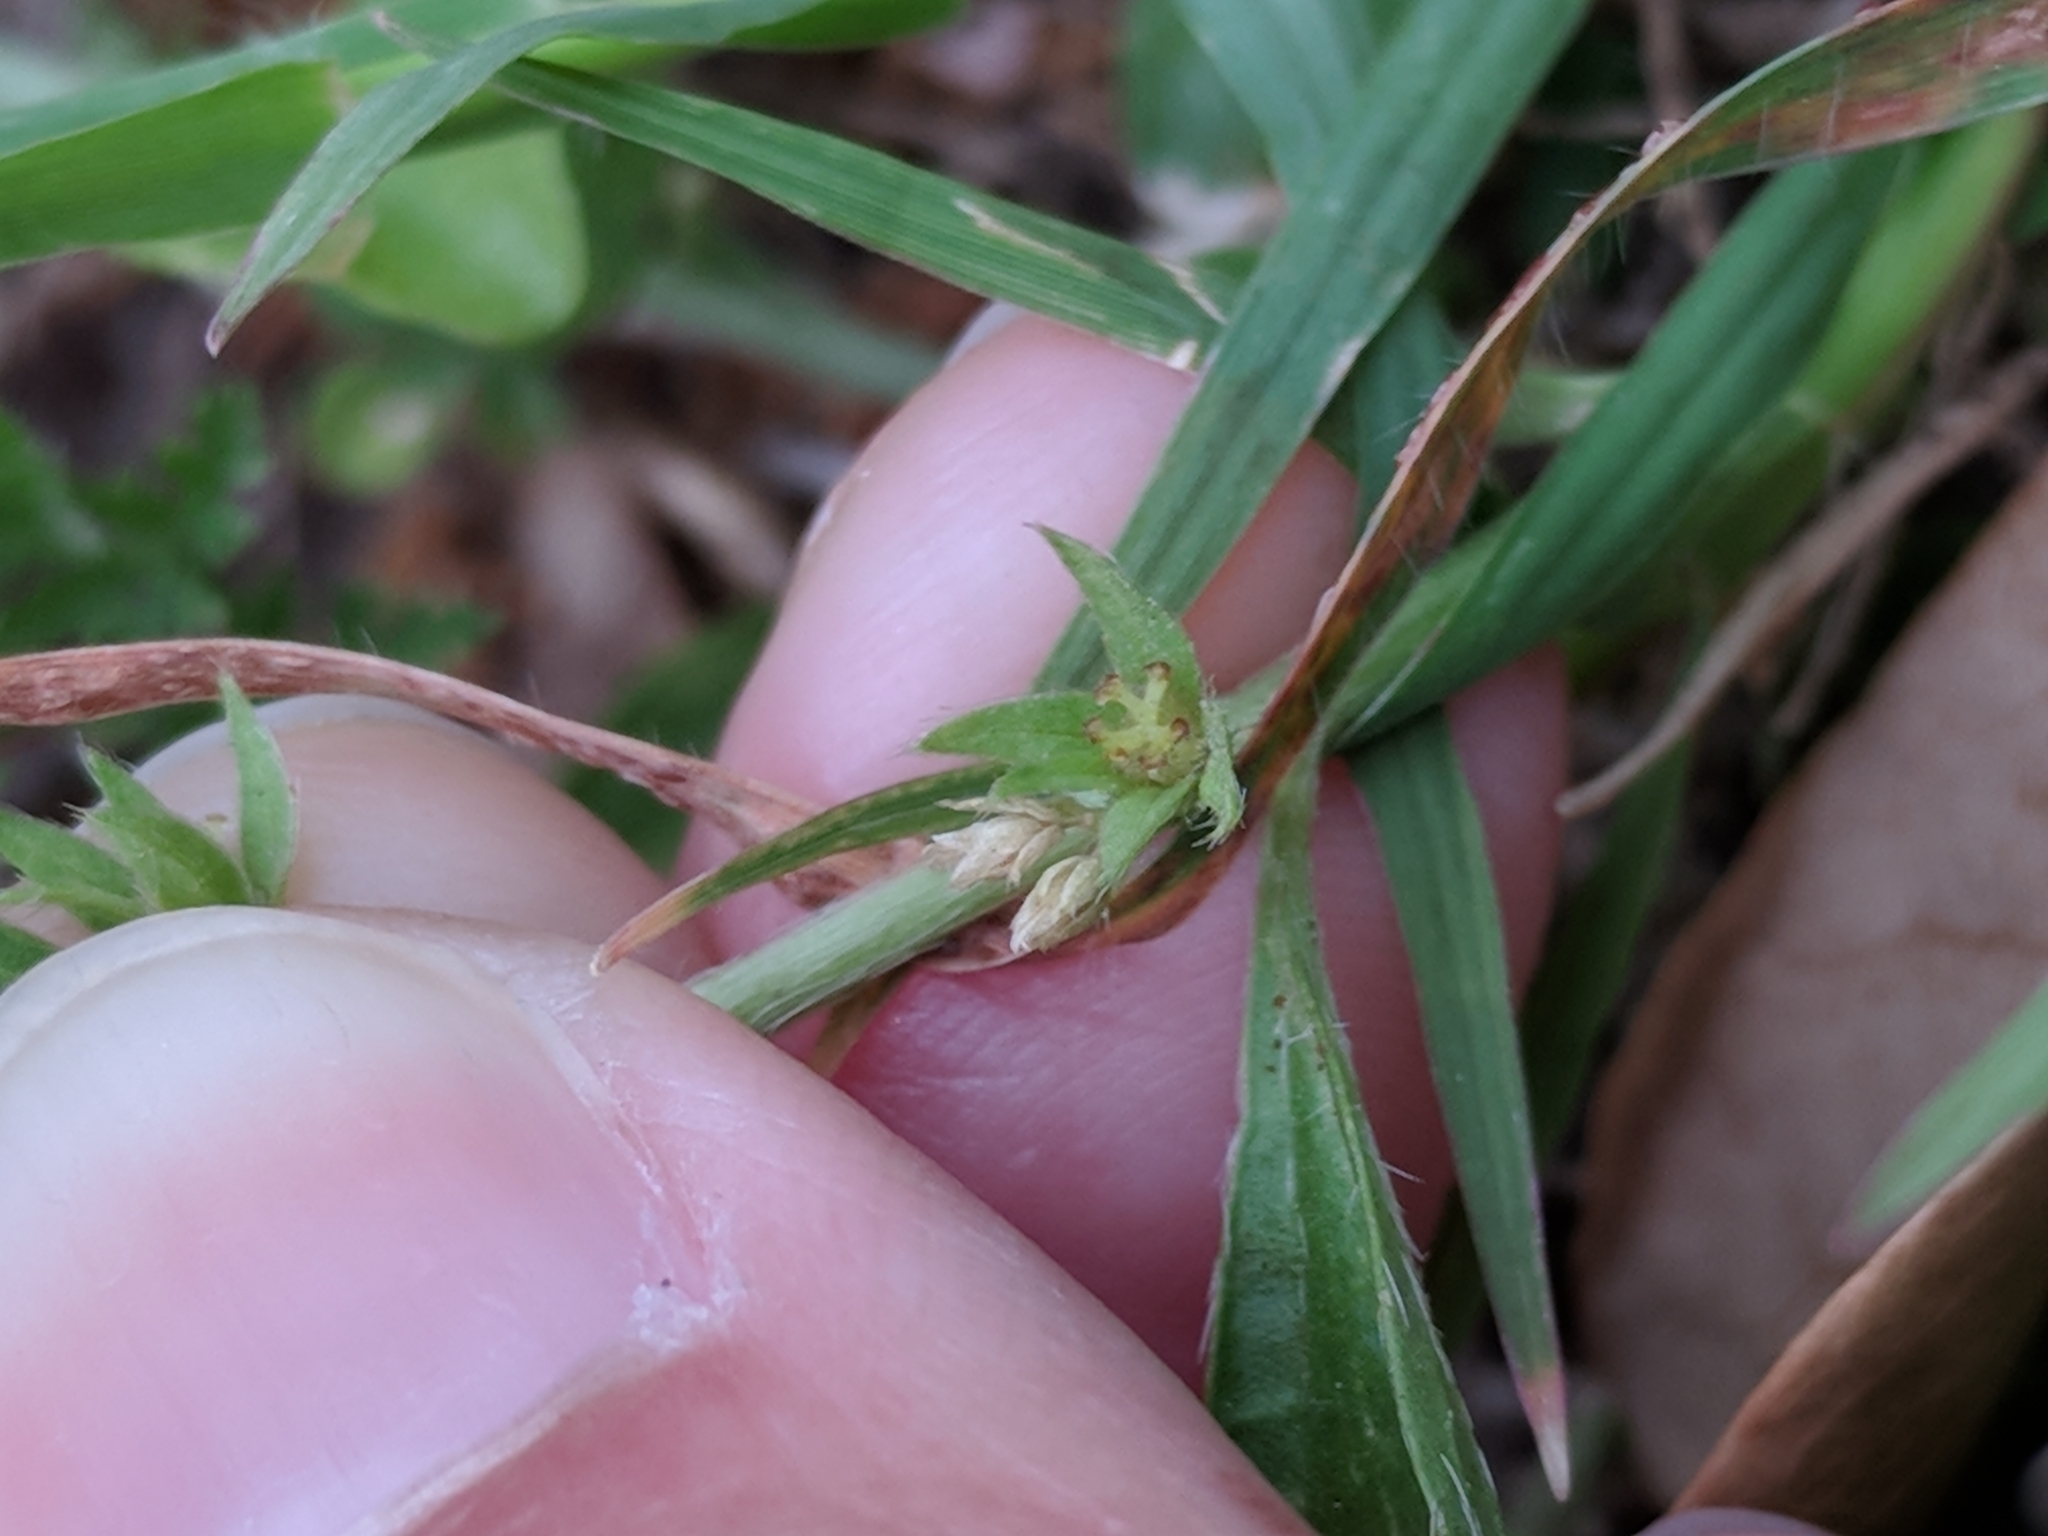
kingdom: Plantae
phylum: Tracheophyta
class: Magnoliopsida
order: Malpighiales
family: Euphorbiaceae
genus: Ditaxis
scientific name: Ditaxis humilis
